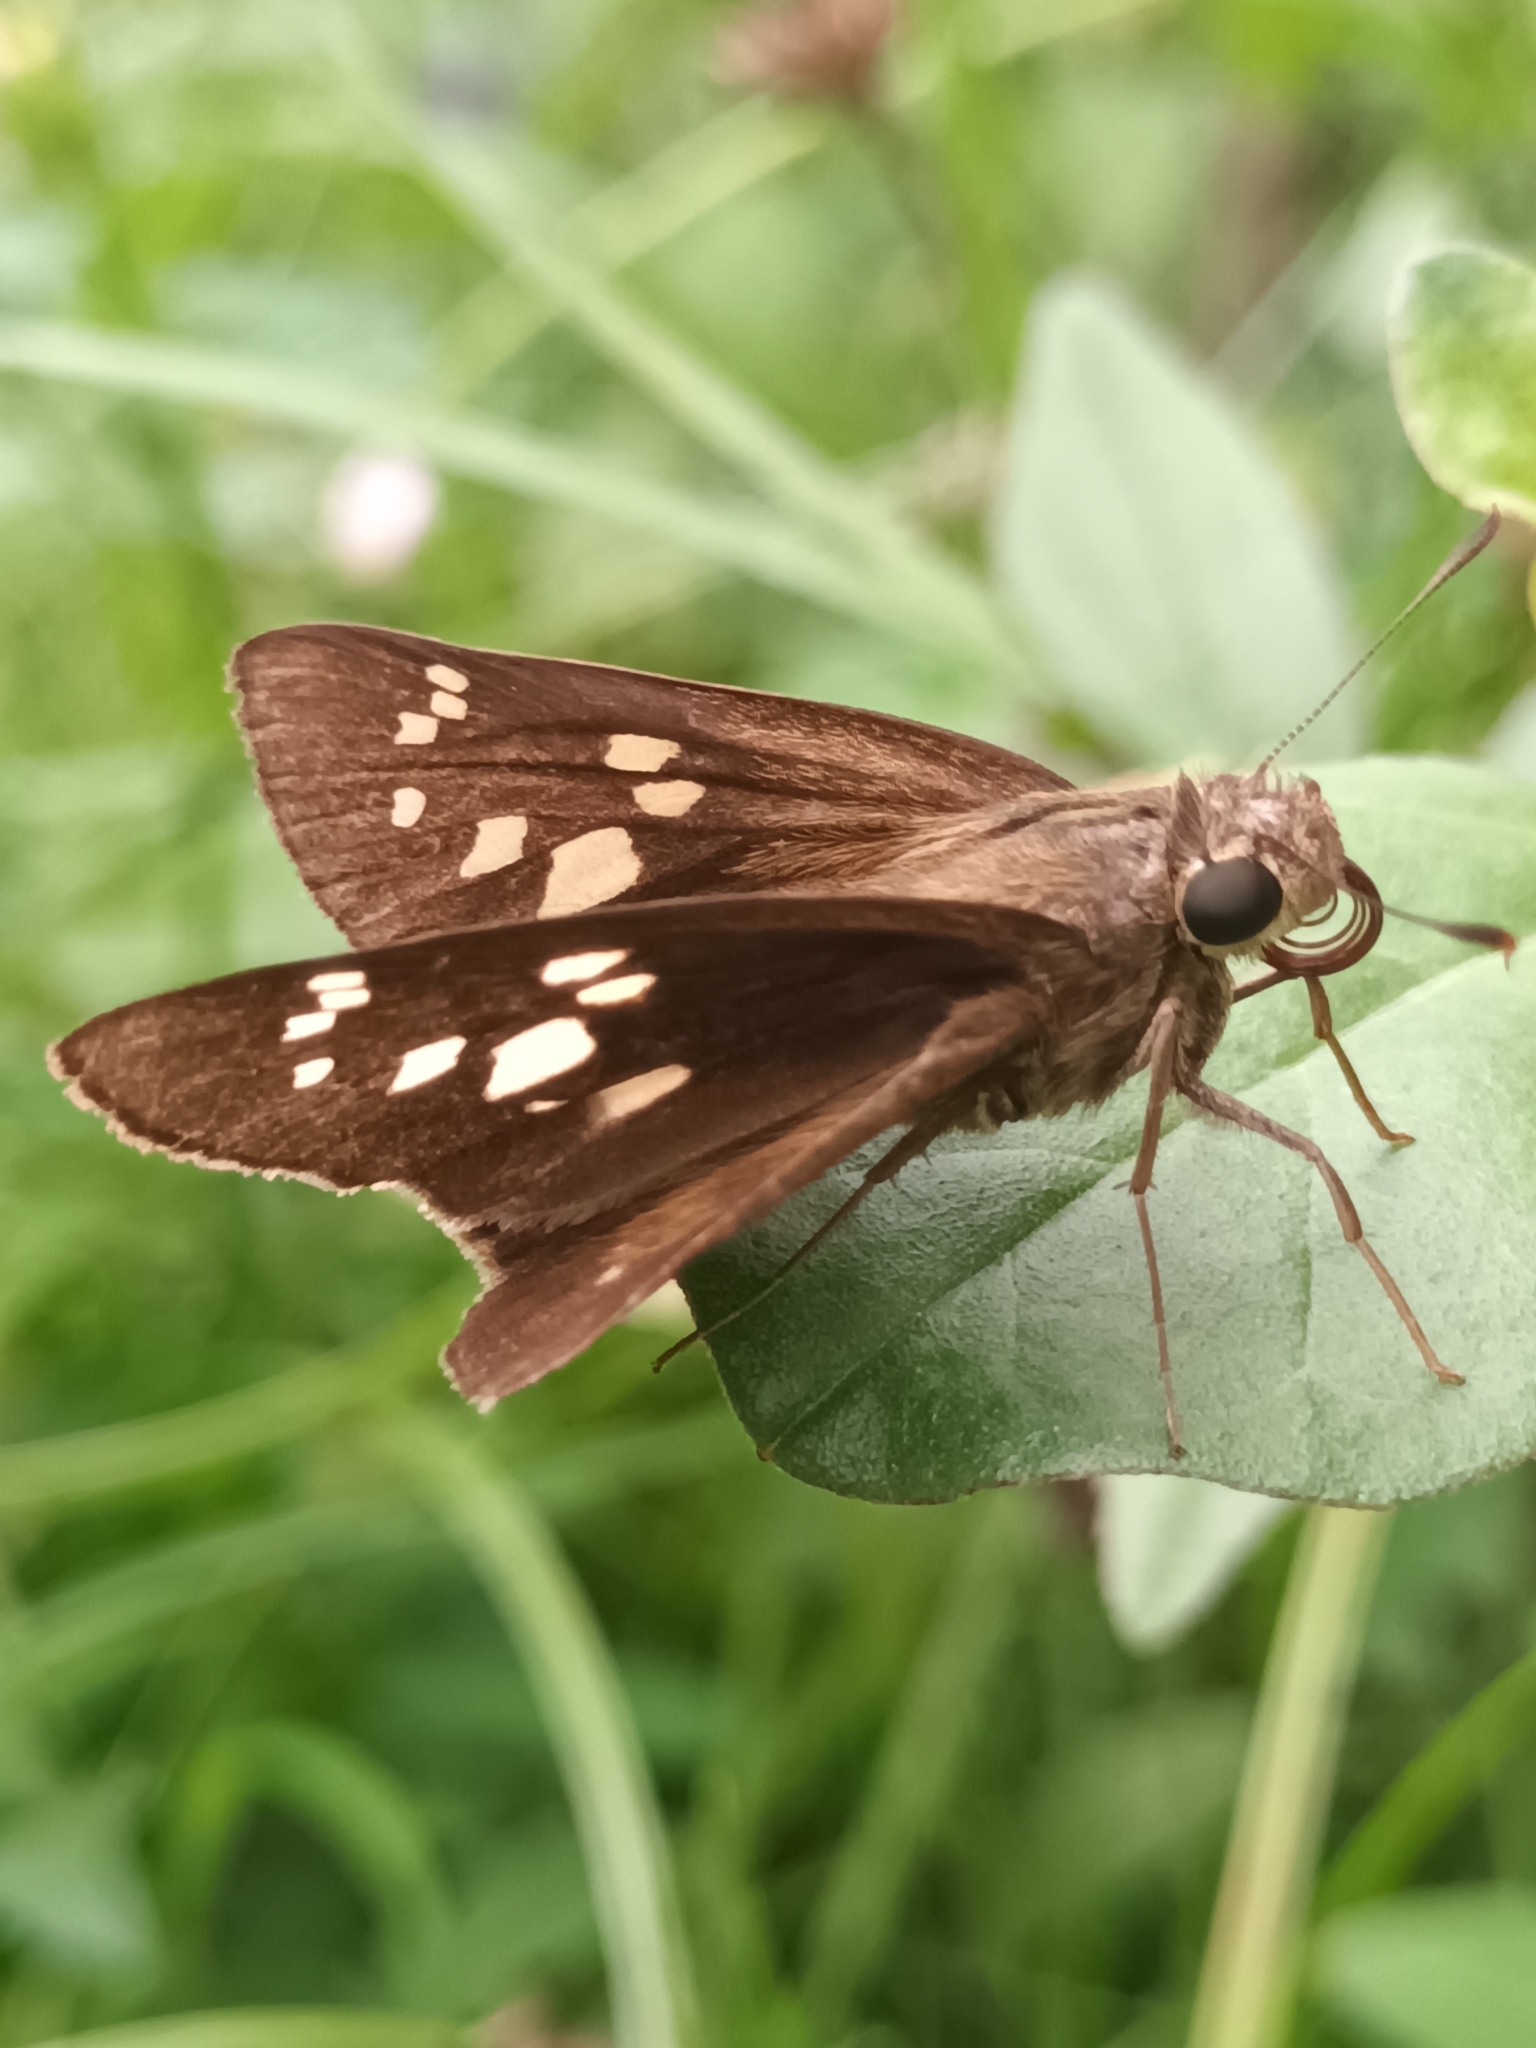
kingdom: Animalia
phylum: Arthropoda
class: Insecta
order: Lepidoptera
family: Hesperiidae
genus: Pelopidas
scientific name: Pelopidas conjuncta
